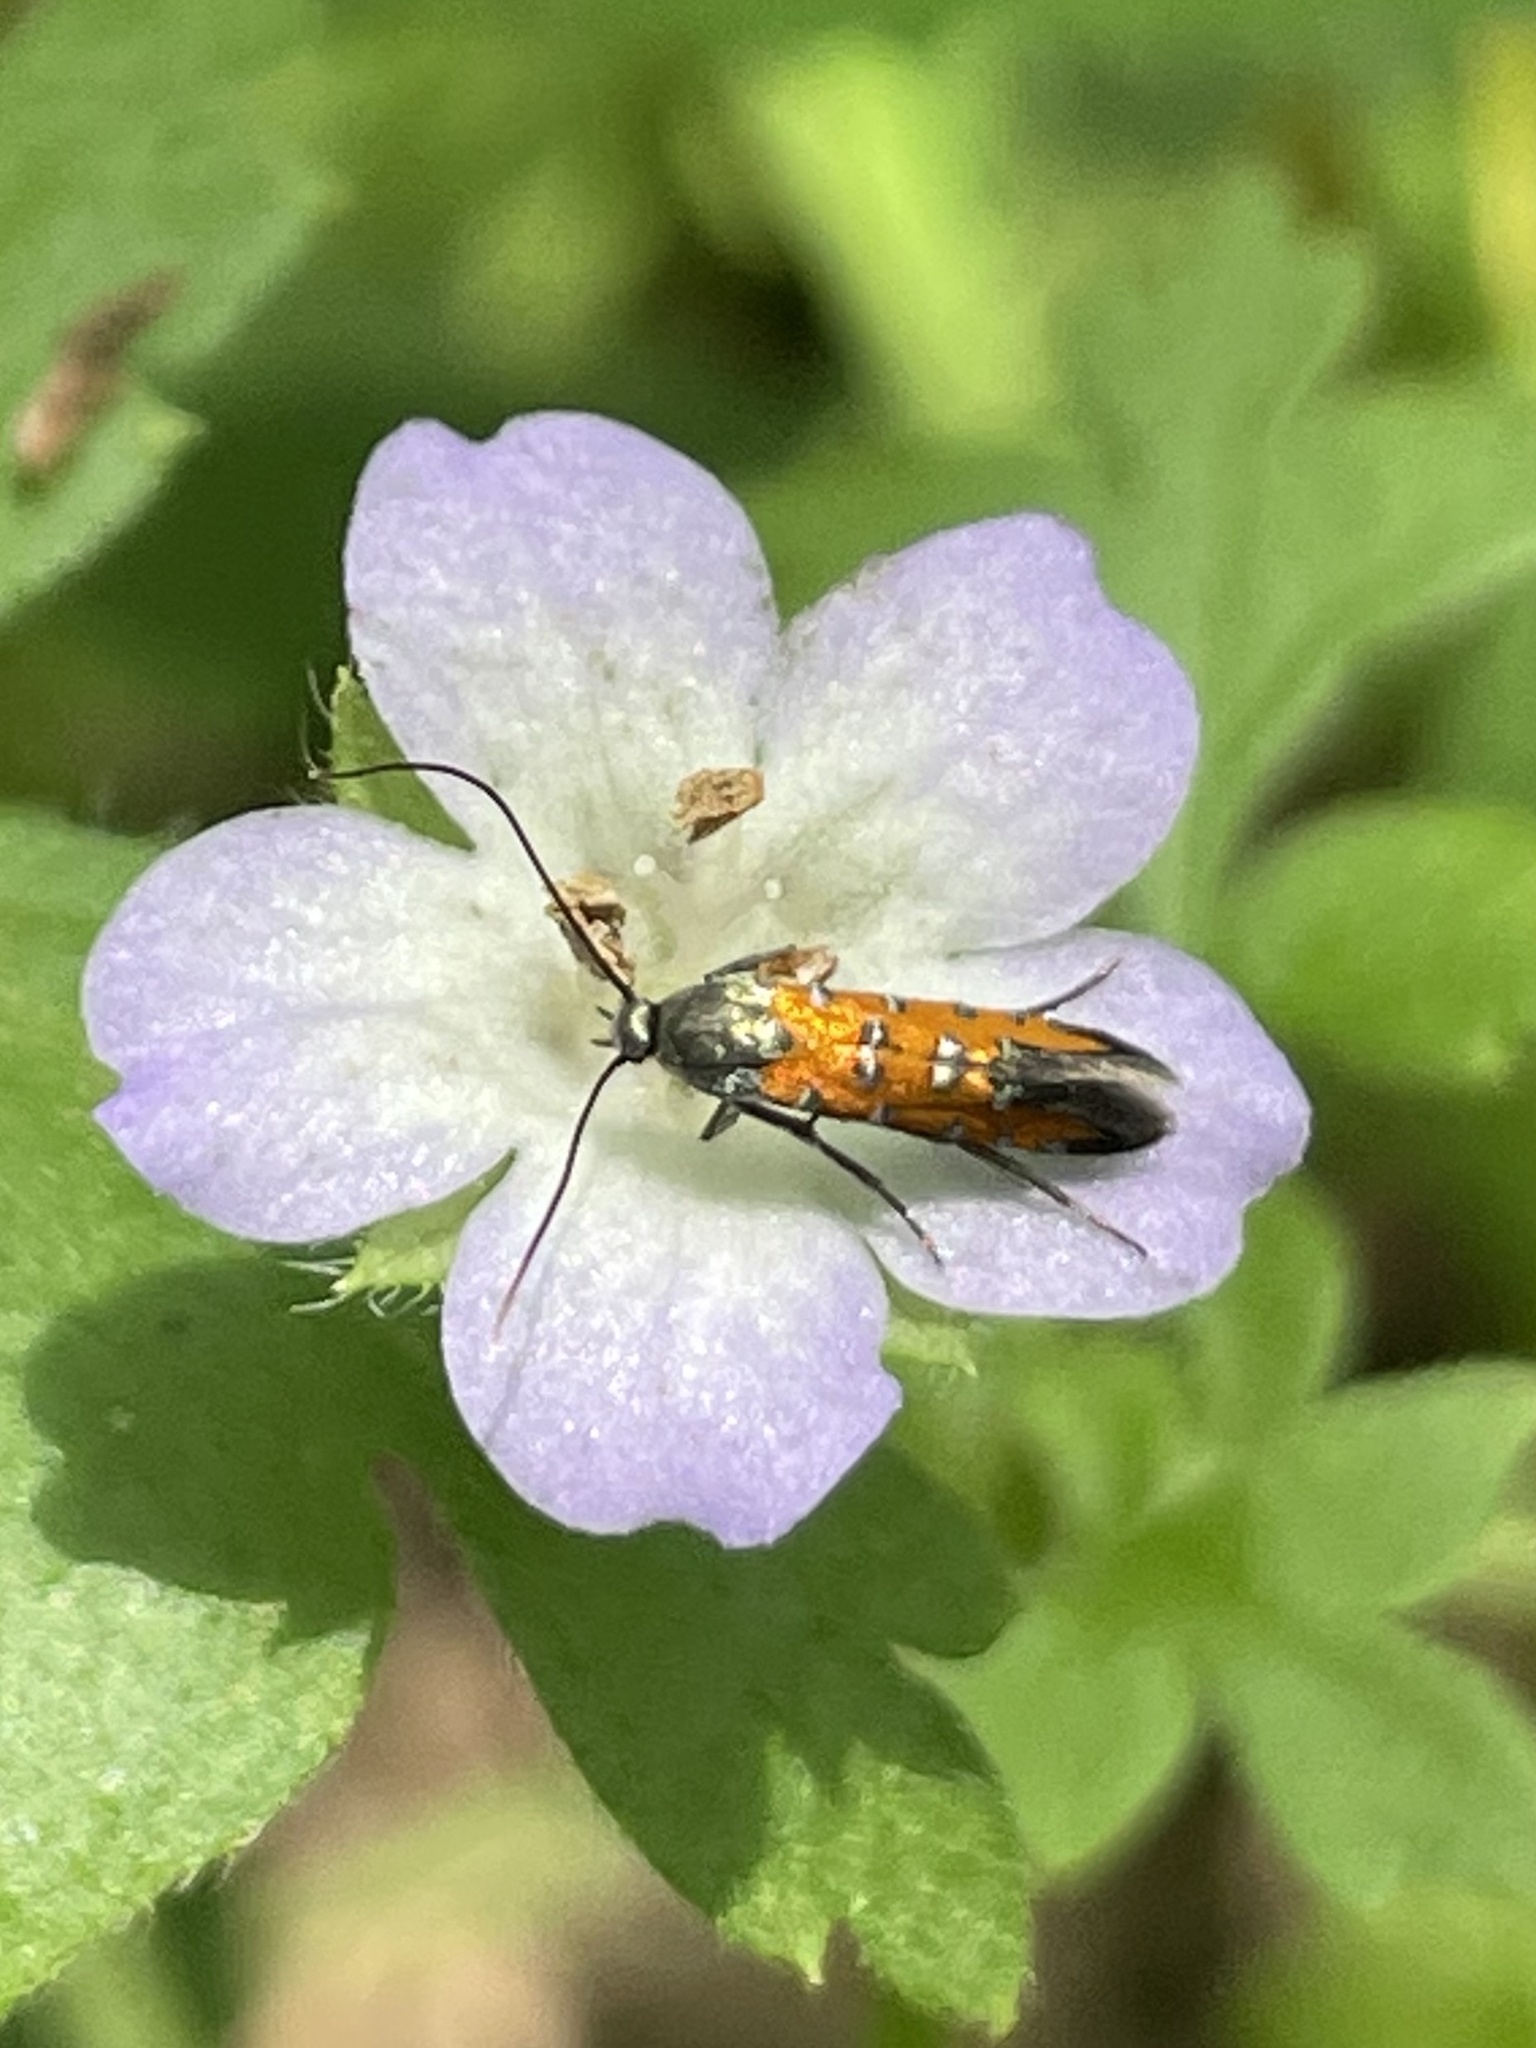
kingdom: Animalia
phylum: Arthropoda
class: Insecta
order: Lepidoptera
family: Heliodinidae
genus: Lamprolophus
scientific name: Lamprolophus Embola ionis
